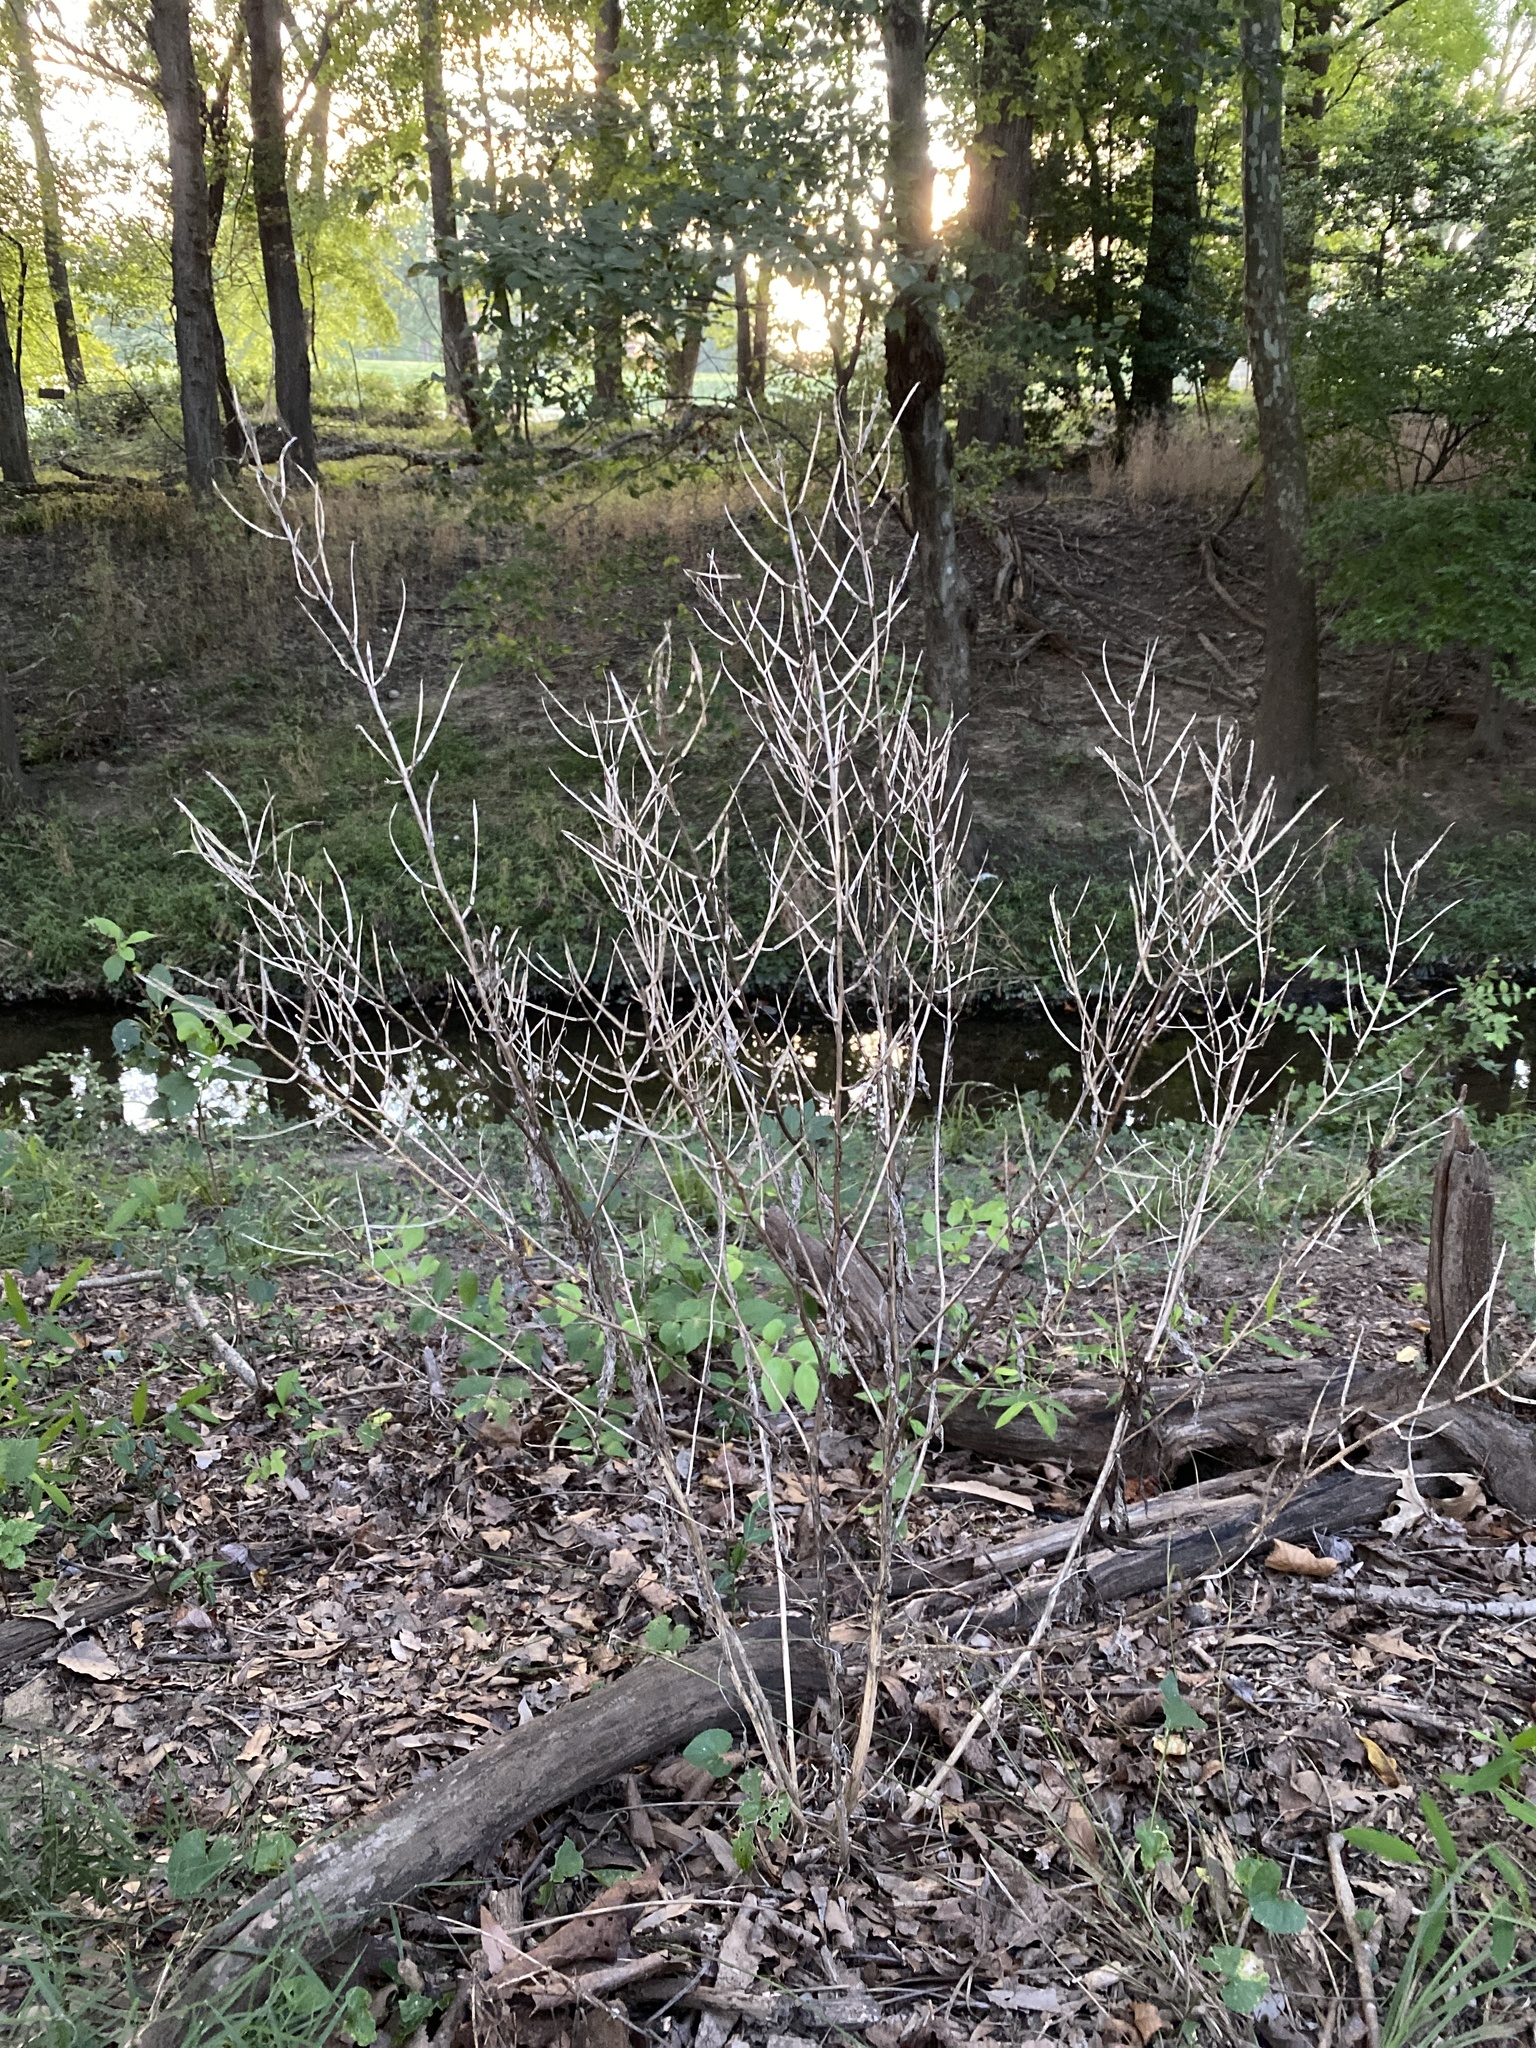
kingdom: Plantae
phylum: Tracheophyta
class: Magnoliopsida
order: Brassicales
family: Brassicaceae
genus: Alliaria
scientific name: Alliaria petiolata
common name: Garlic mustard
